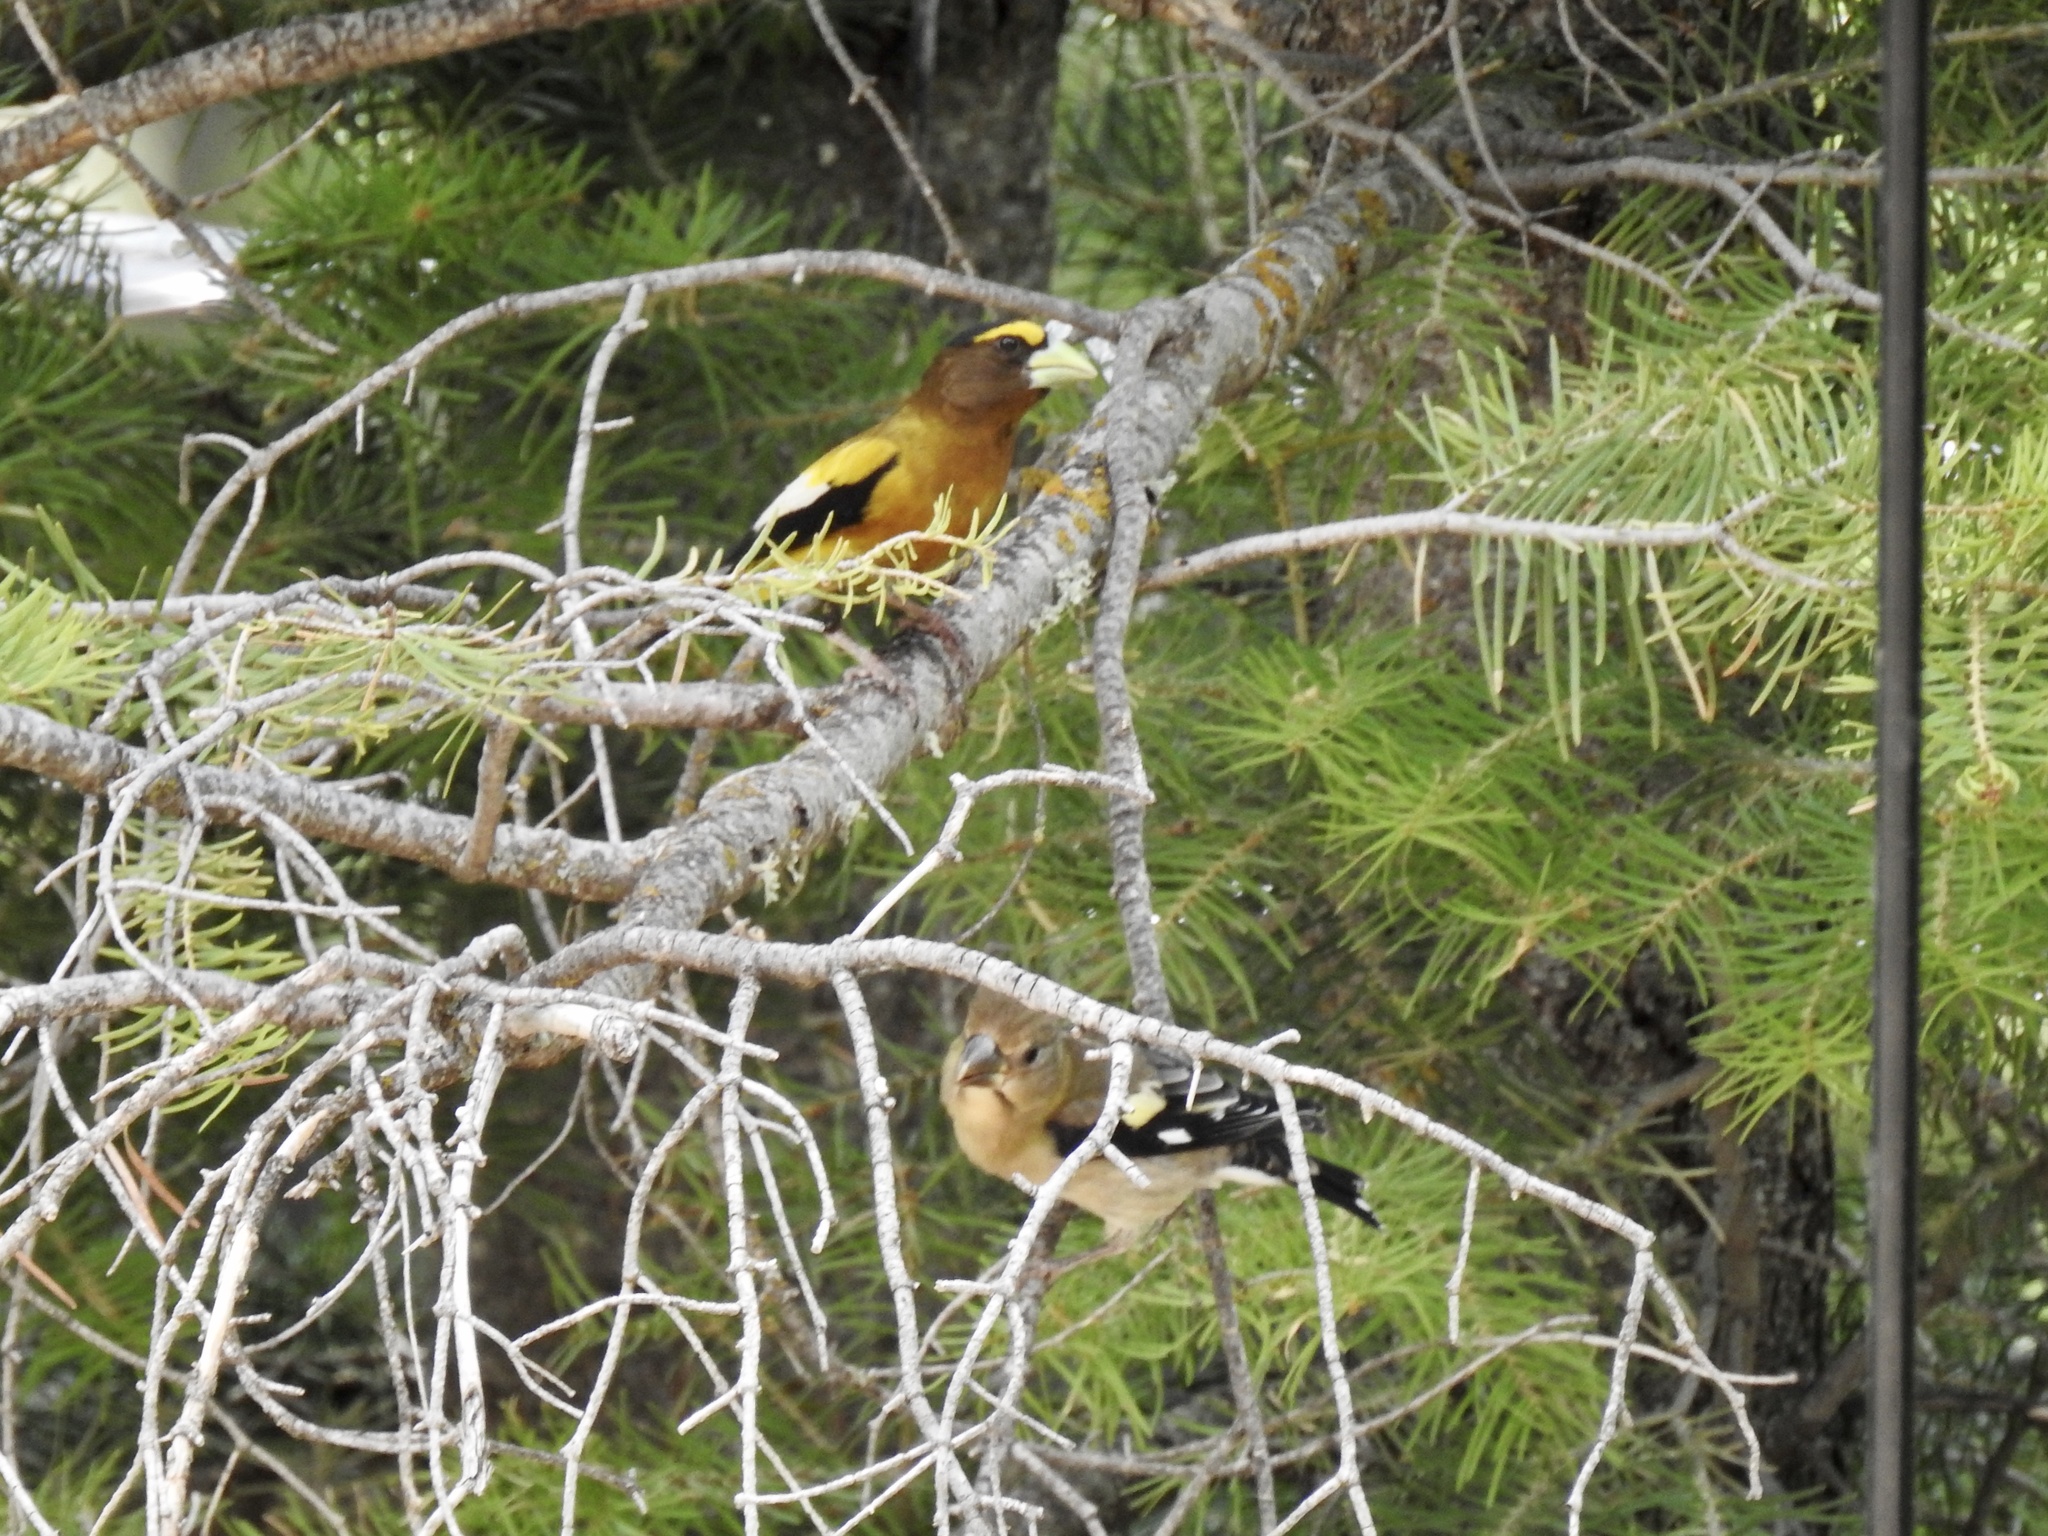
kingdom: Animalia
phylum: Chordata
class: Aves
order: Passeriformes
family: Fringillidae
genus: Hesperiphona
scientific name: Hesperiphona vespertina
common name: Evening grosbeak
